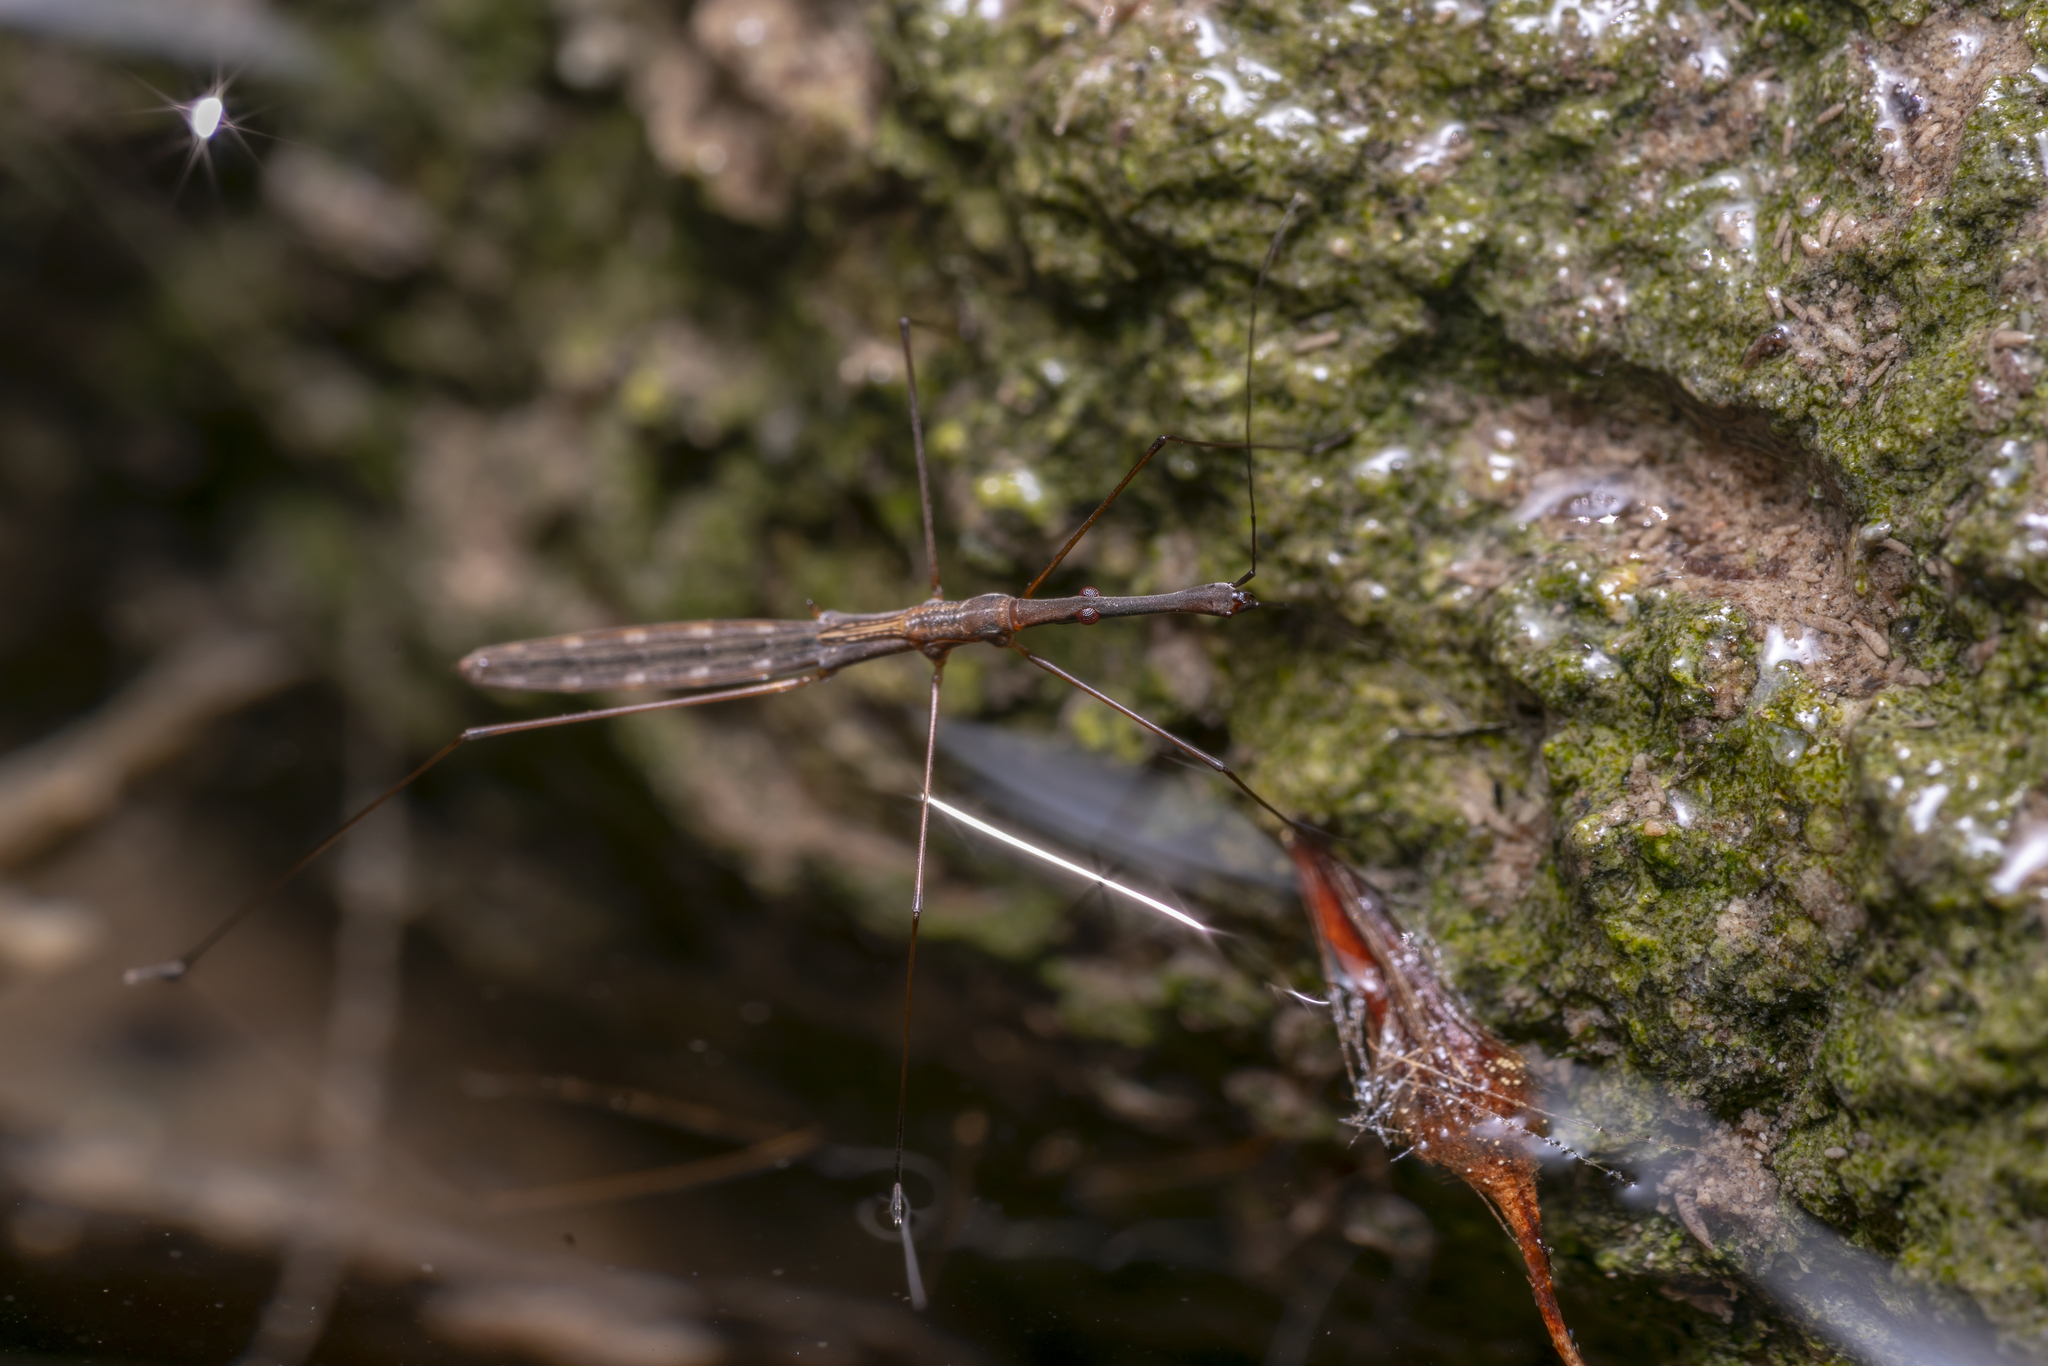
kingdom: Animalia
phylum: Arthropoda
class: Insecta
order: Hemiptera
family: Hydrometridae
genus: Hydrometra
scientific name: Hydrometra stagnorum
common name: Water measurer
